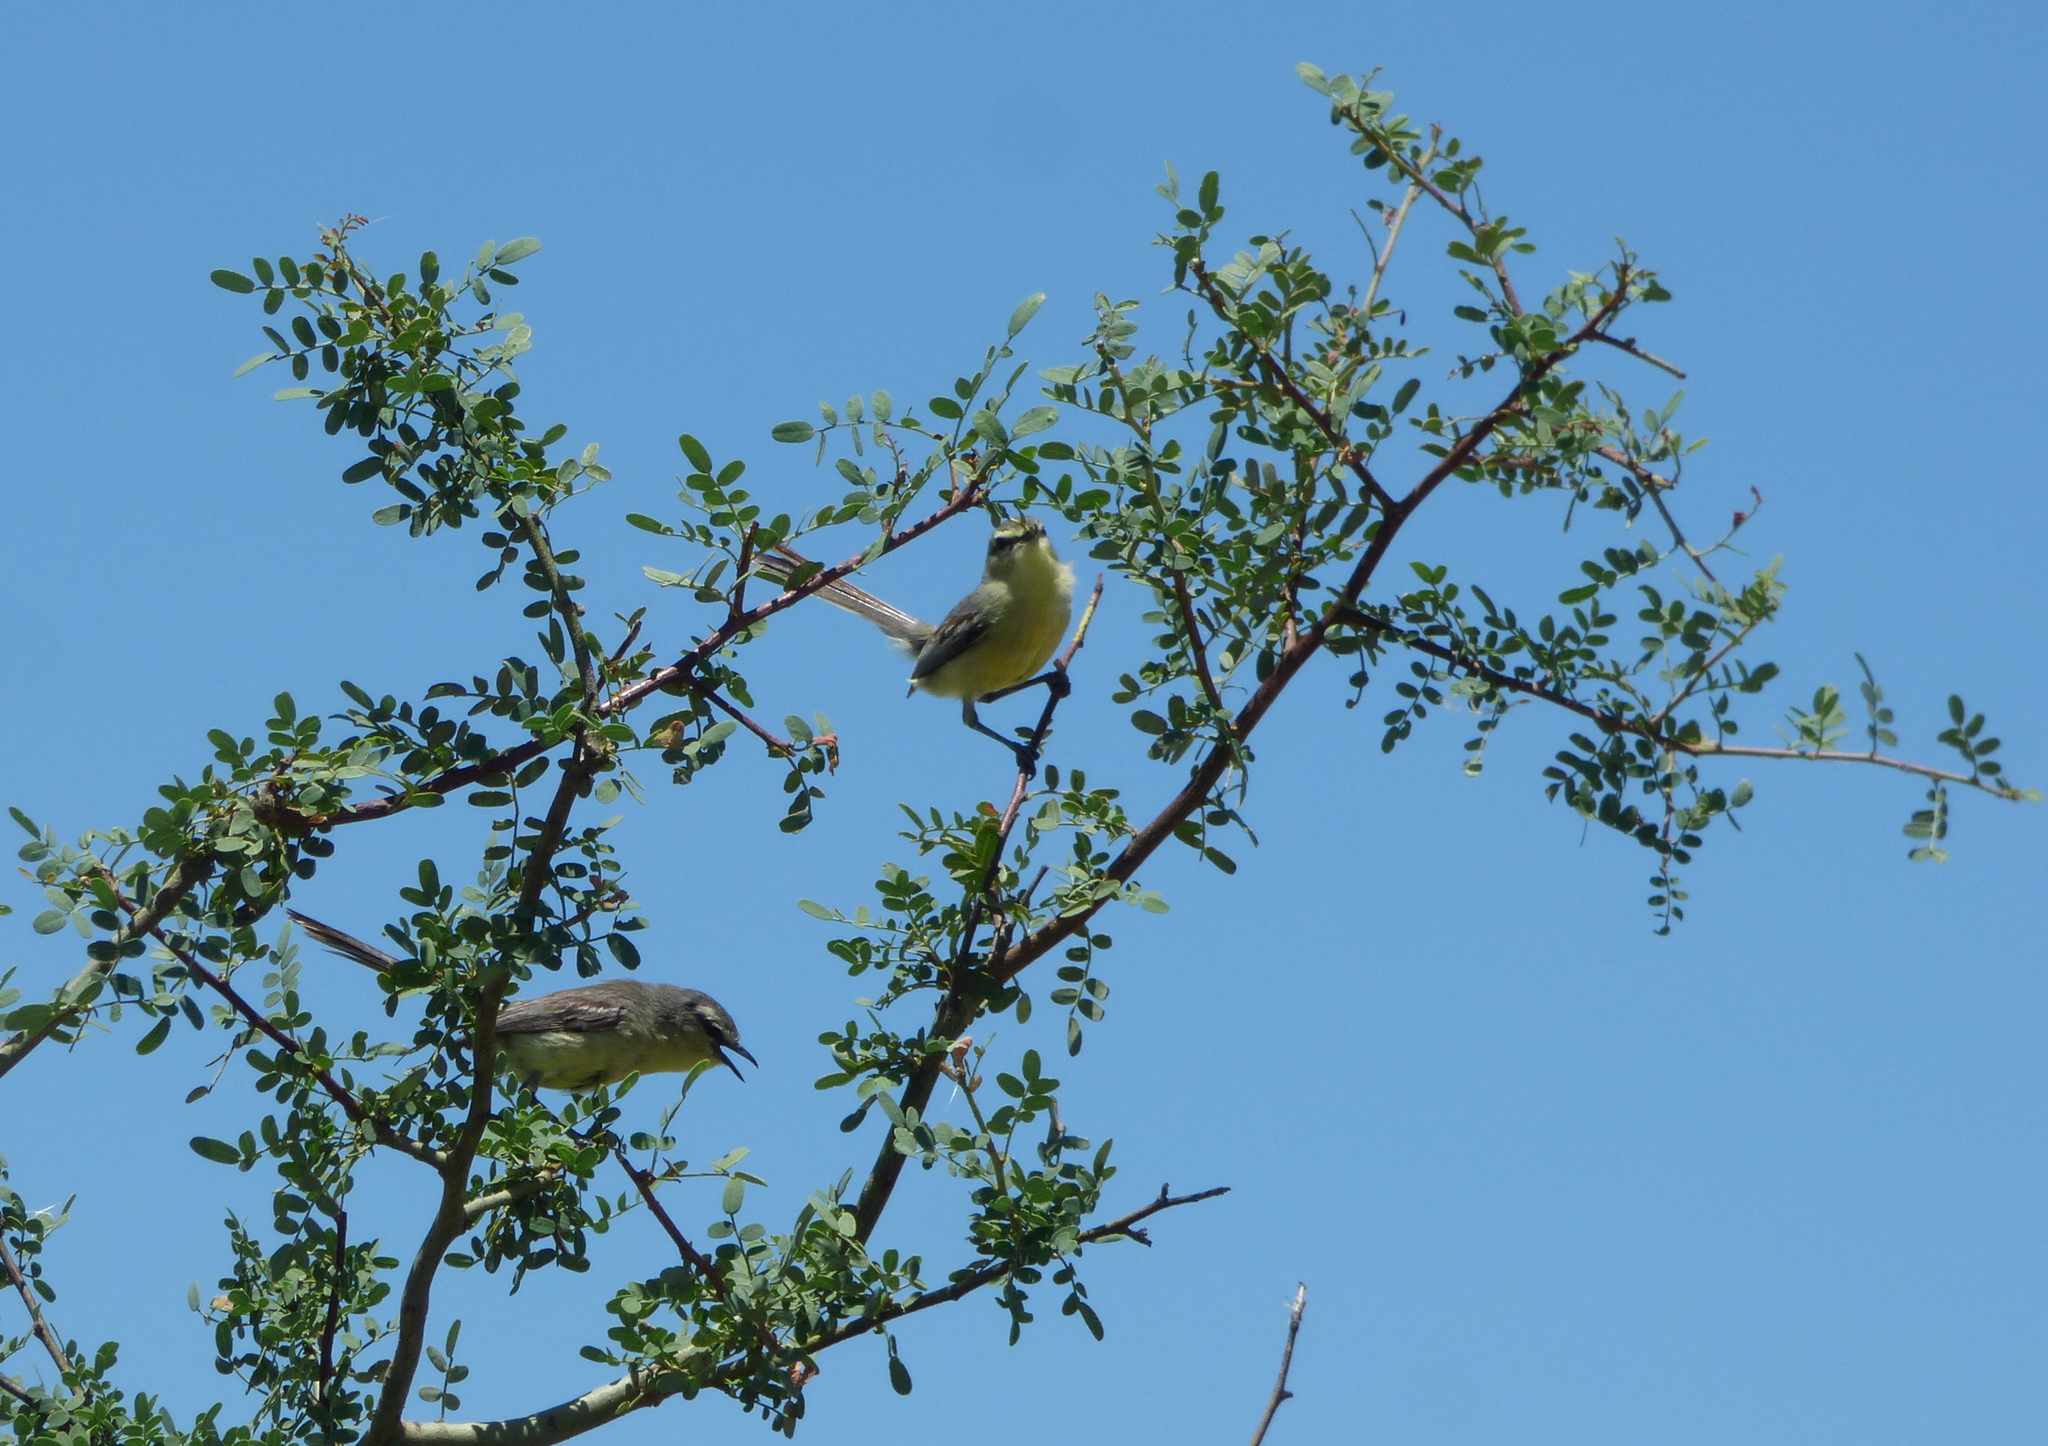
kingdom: Animalia
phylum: Chordata
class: Aves
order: Passeriformes
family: Tyrannidae
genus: Stigmatura
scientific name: Stigmatura budytoides
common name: Greater wagtail-tyrant
